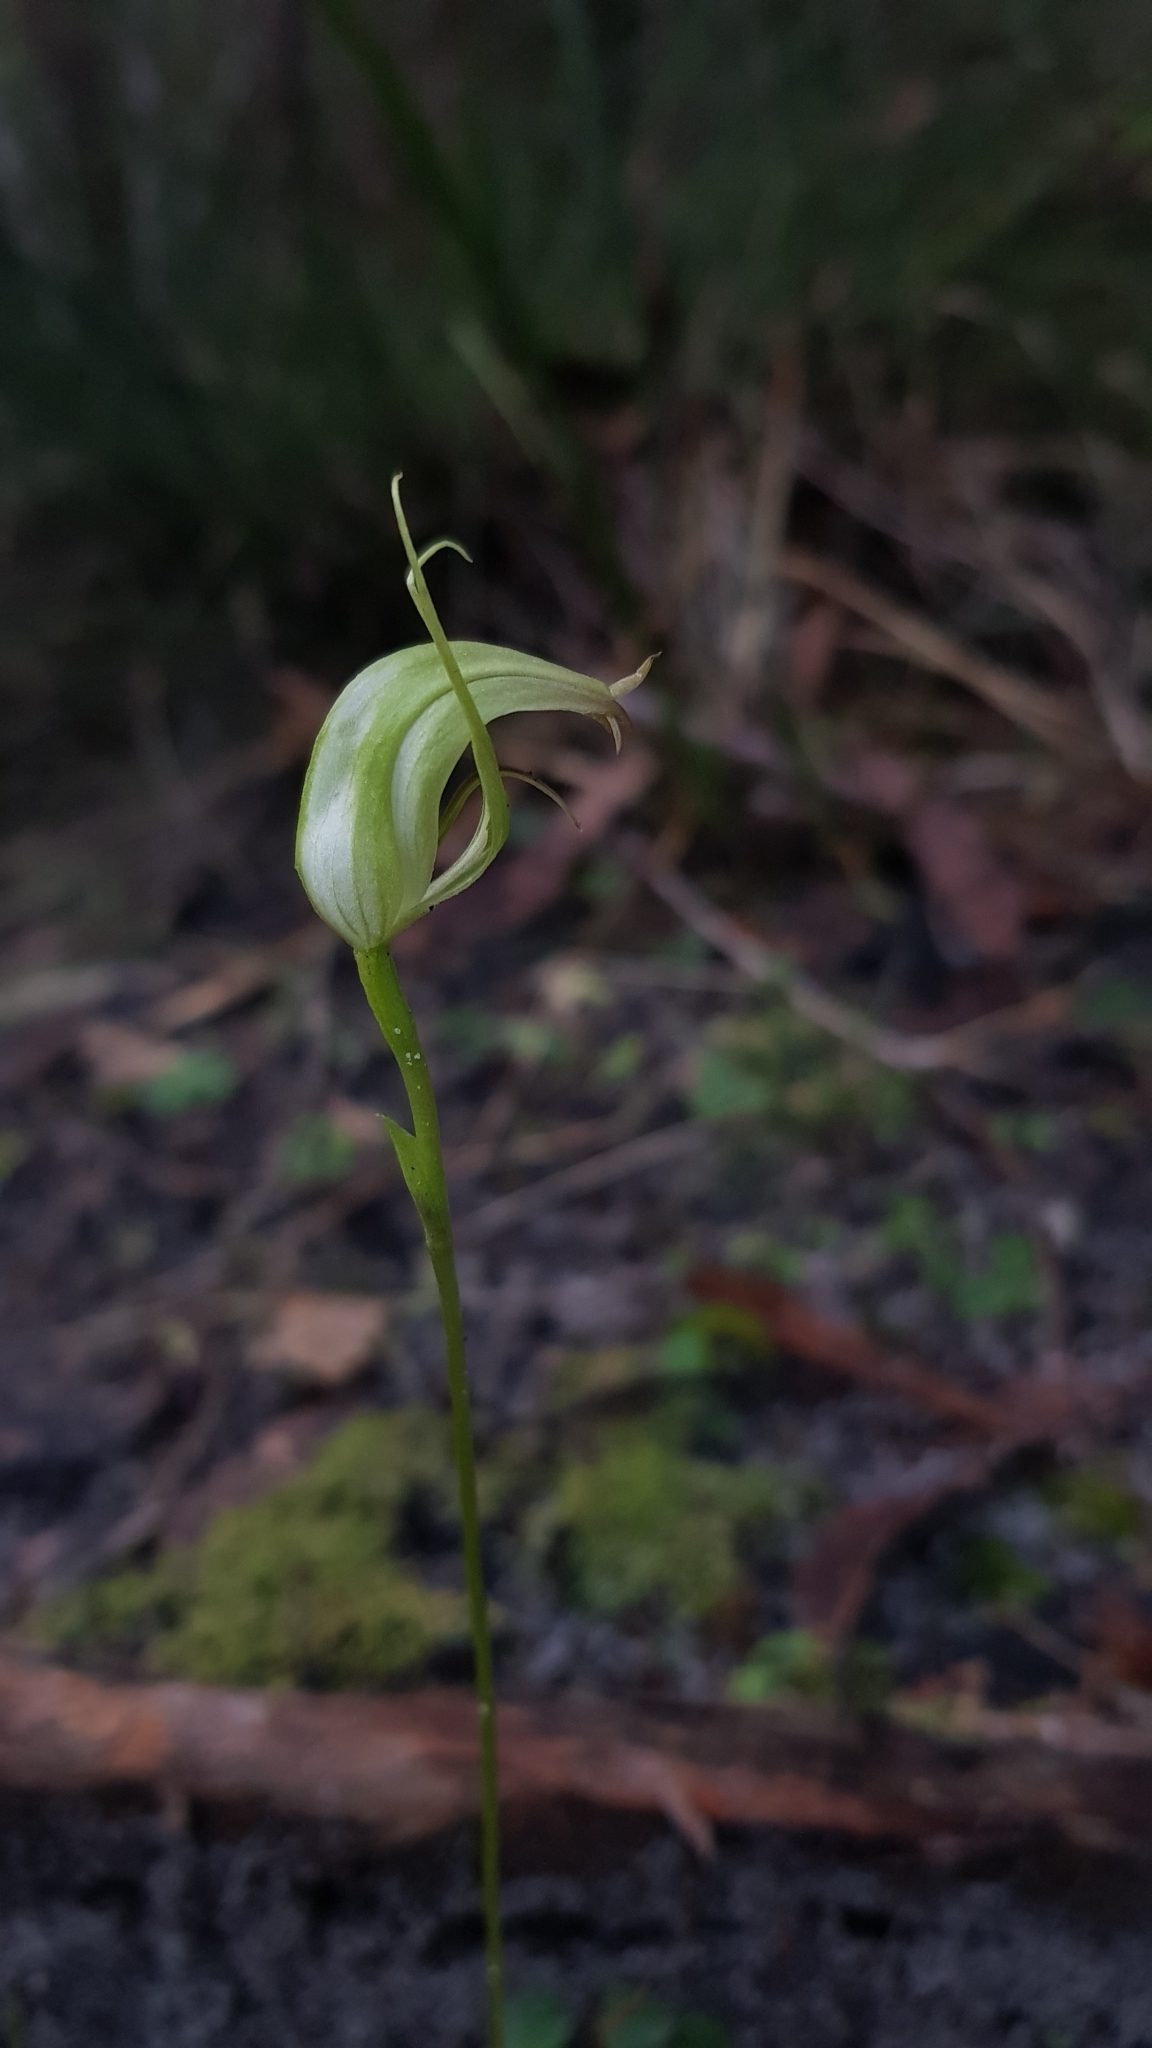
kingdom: Plantae
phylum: Tracheophyta
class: Liliopsida
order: Asparagales
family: Orchidaceae
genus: Pterostylis
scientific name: Pterostylis acuminata
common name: Pointed greenhood
